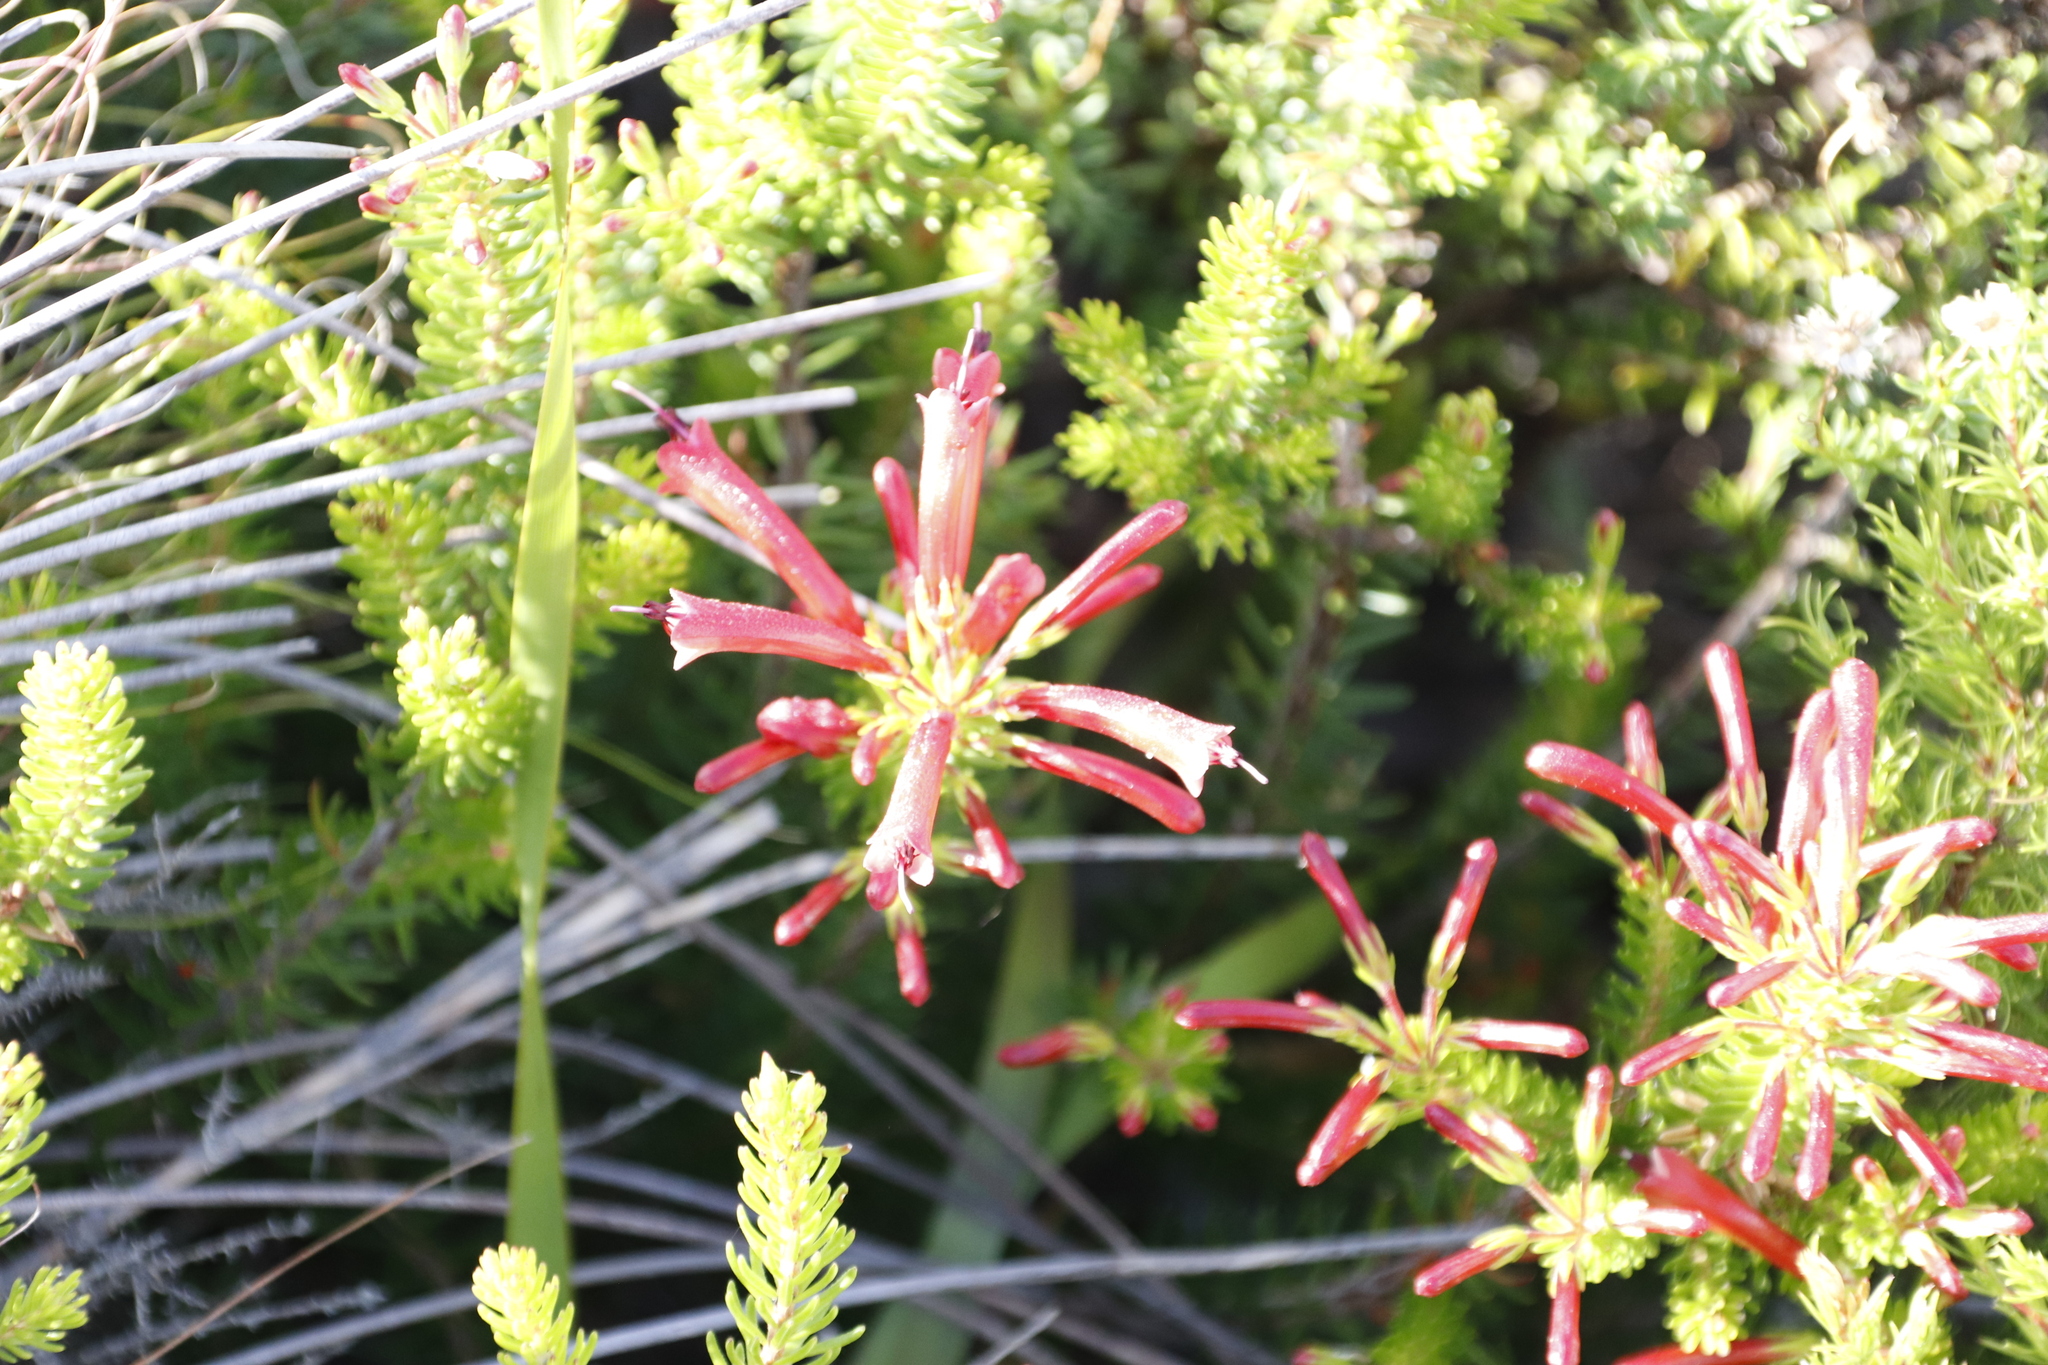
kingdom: Plantae
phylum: Tracheophyta
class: Magnoliopsida
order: Ericales
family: Ericaceae
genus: Erica
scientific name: Erica nevillei
